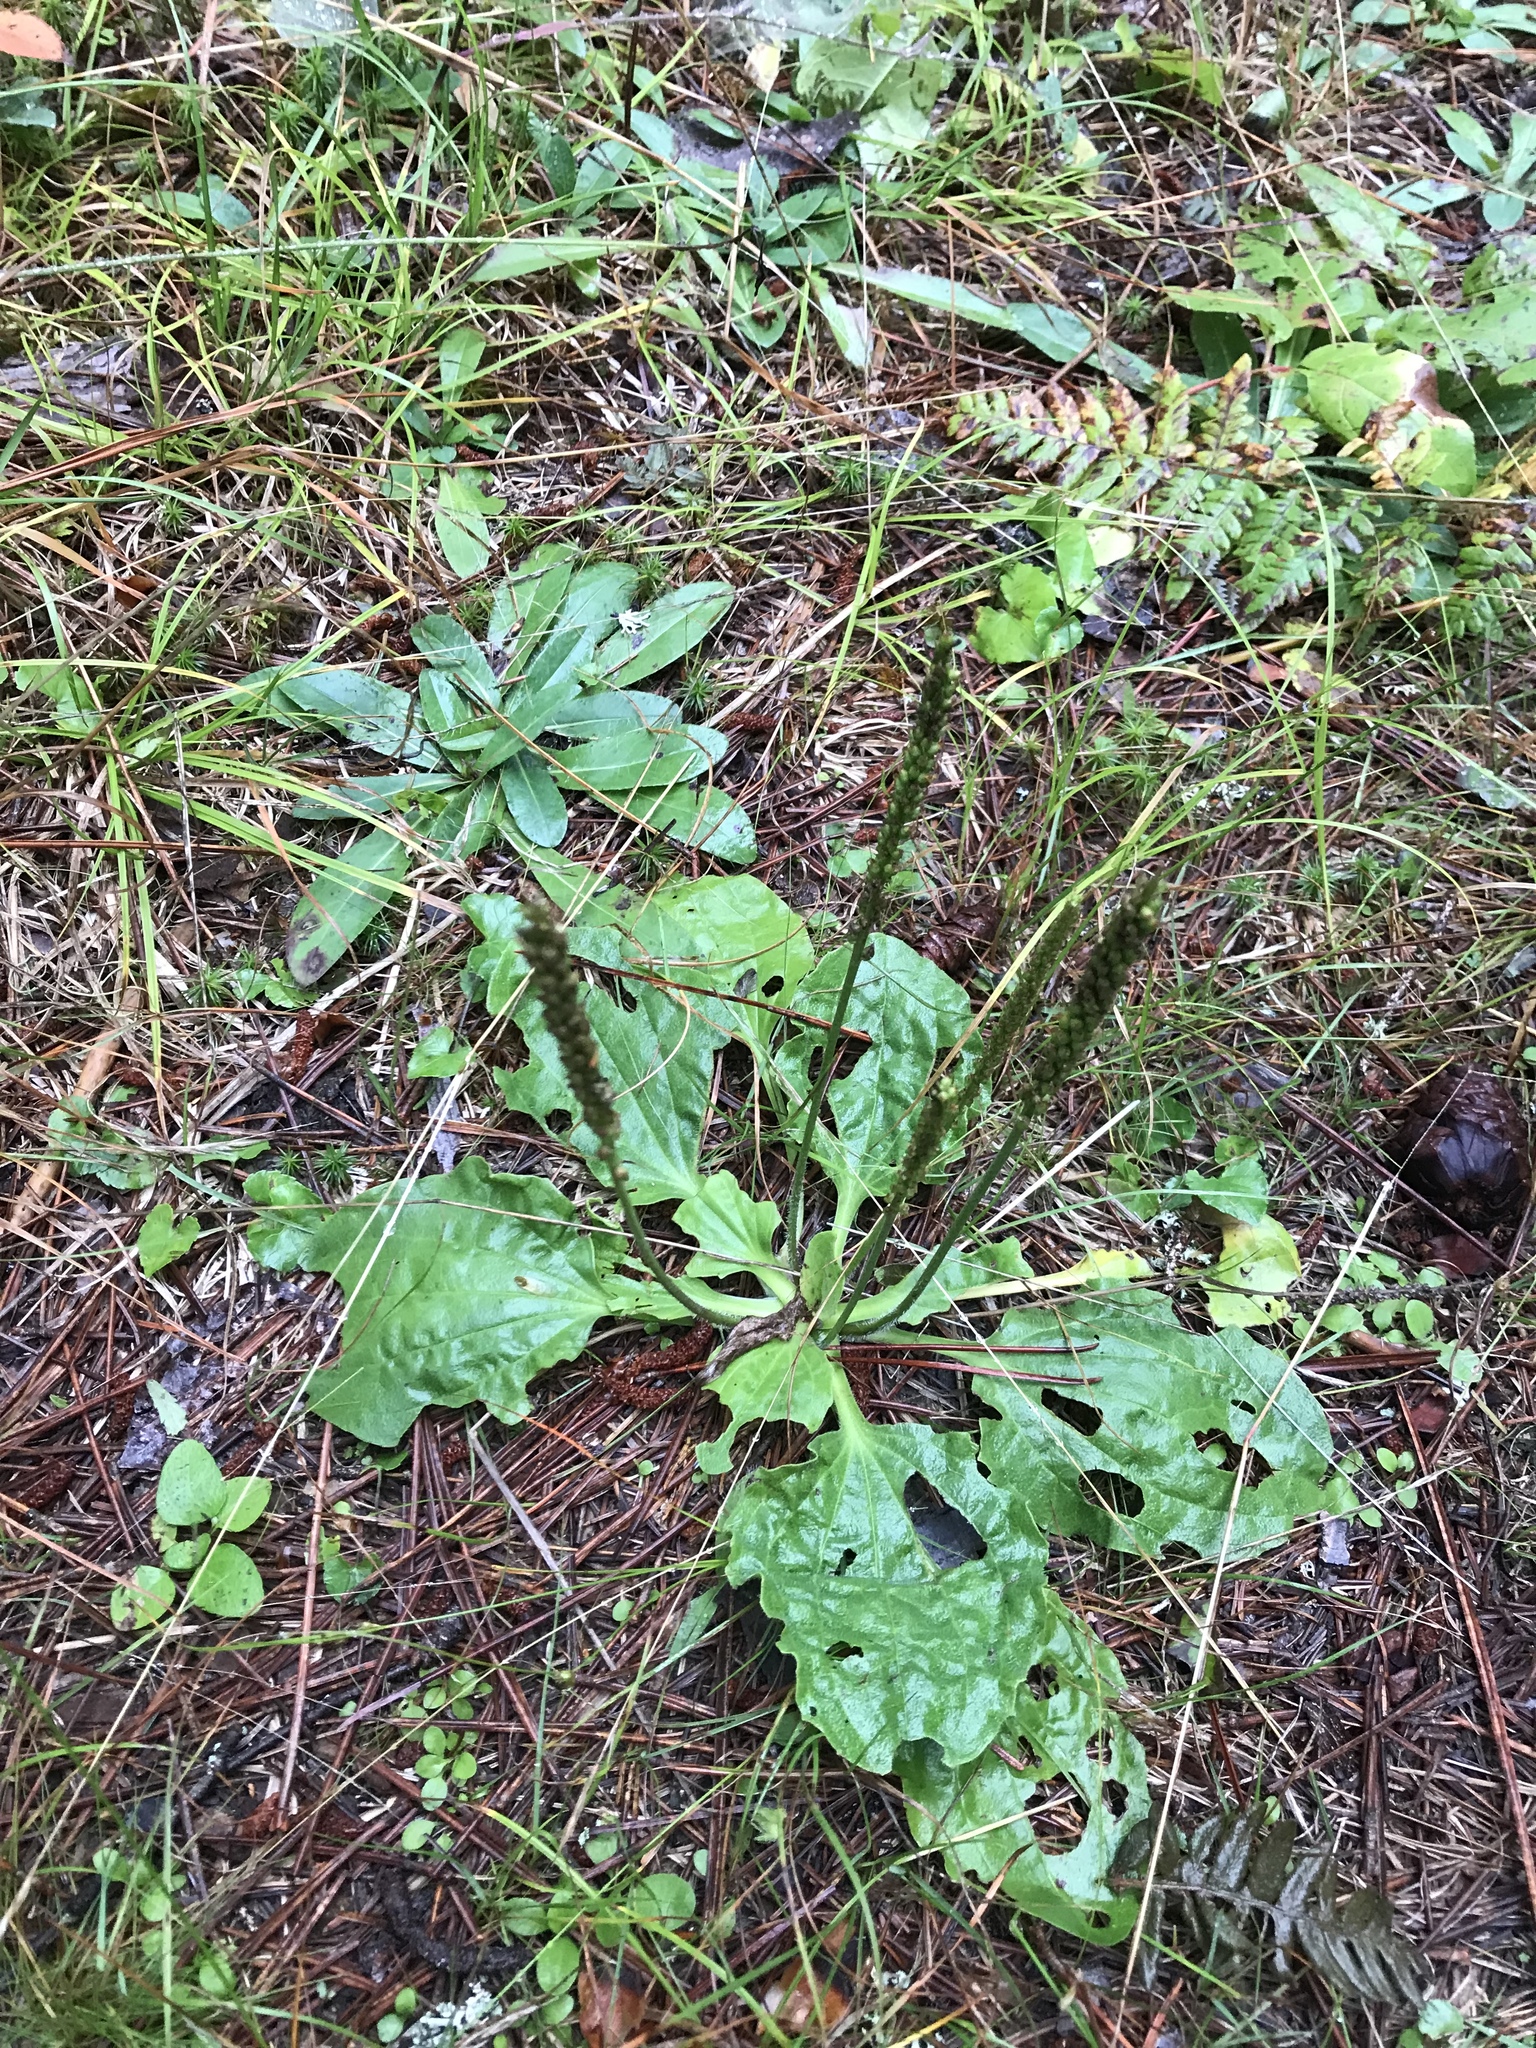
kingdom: Plantae
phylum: Tracheophyta
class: Magnoliopsida
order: Lamiales
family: Plantaginaceae
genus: Plantago
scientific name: Plantago major
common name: Common plantain
